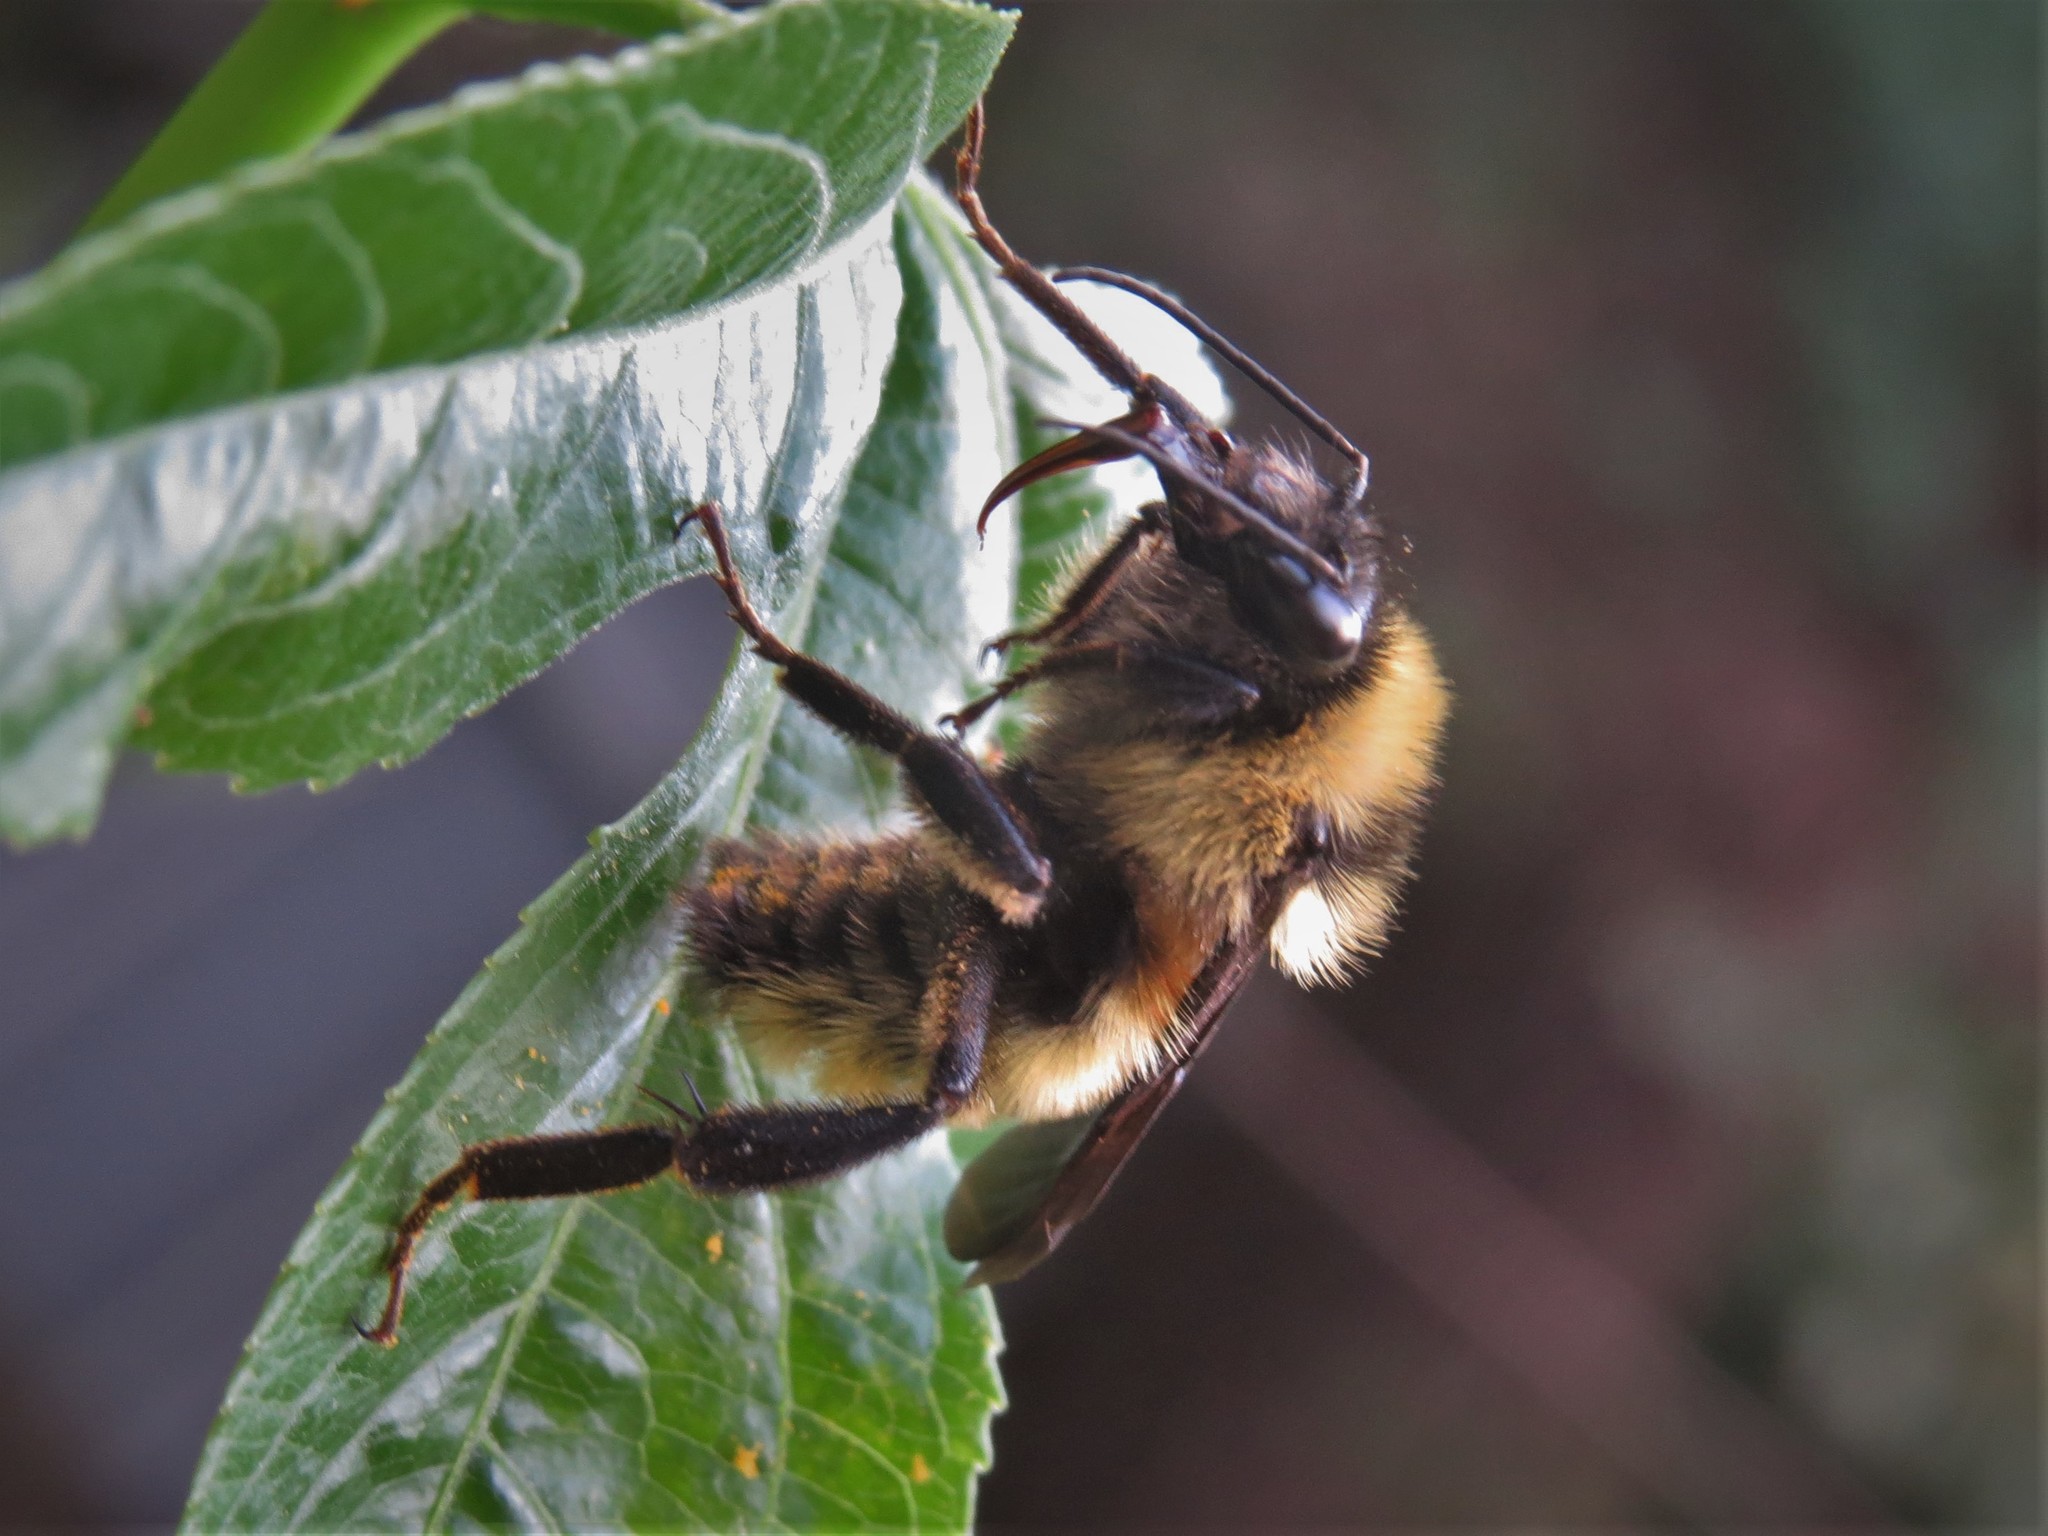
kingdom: Animalia
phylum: Arthropoda
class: Insecta
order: Hymenoptera
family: Apidae
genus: Bombus
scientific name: Bombus pensylvanicus
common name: Bumble bee
